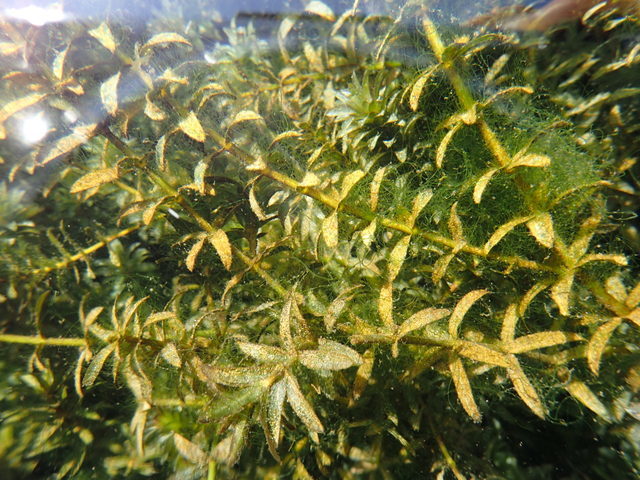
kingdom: Plantae
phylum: Tracheophyta
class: Liliopsida
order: Alismatales
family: Hydrocharitaceae
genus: Hydrilla
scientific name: Hydrilla verticillata
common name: Florida-elodea
